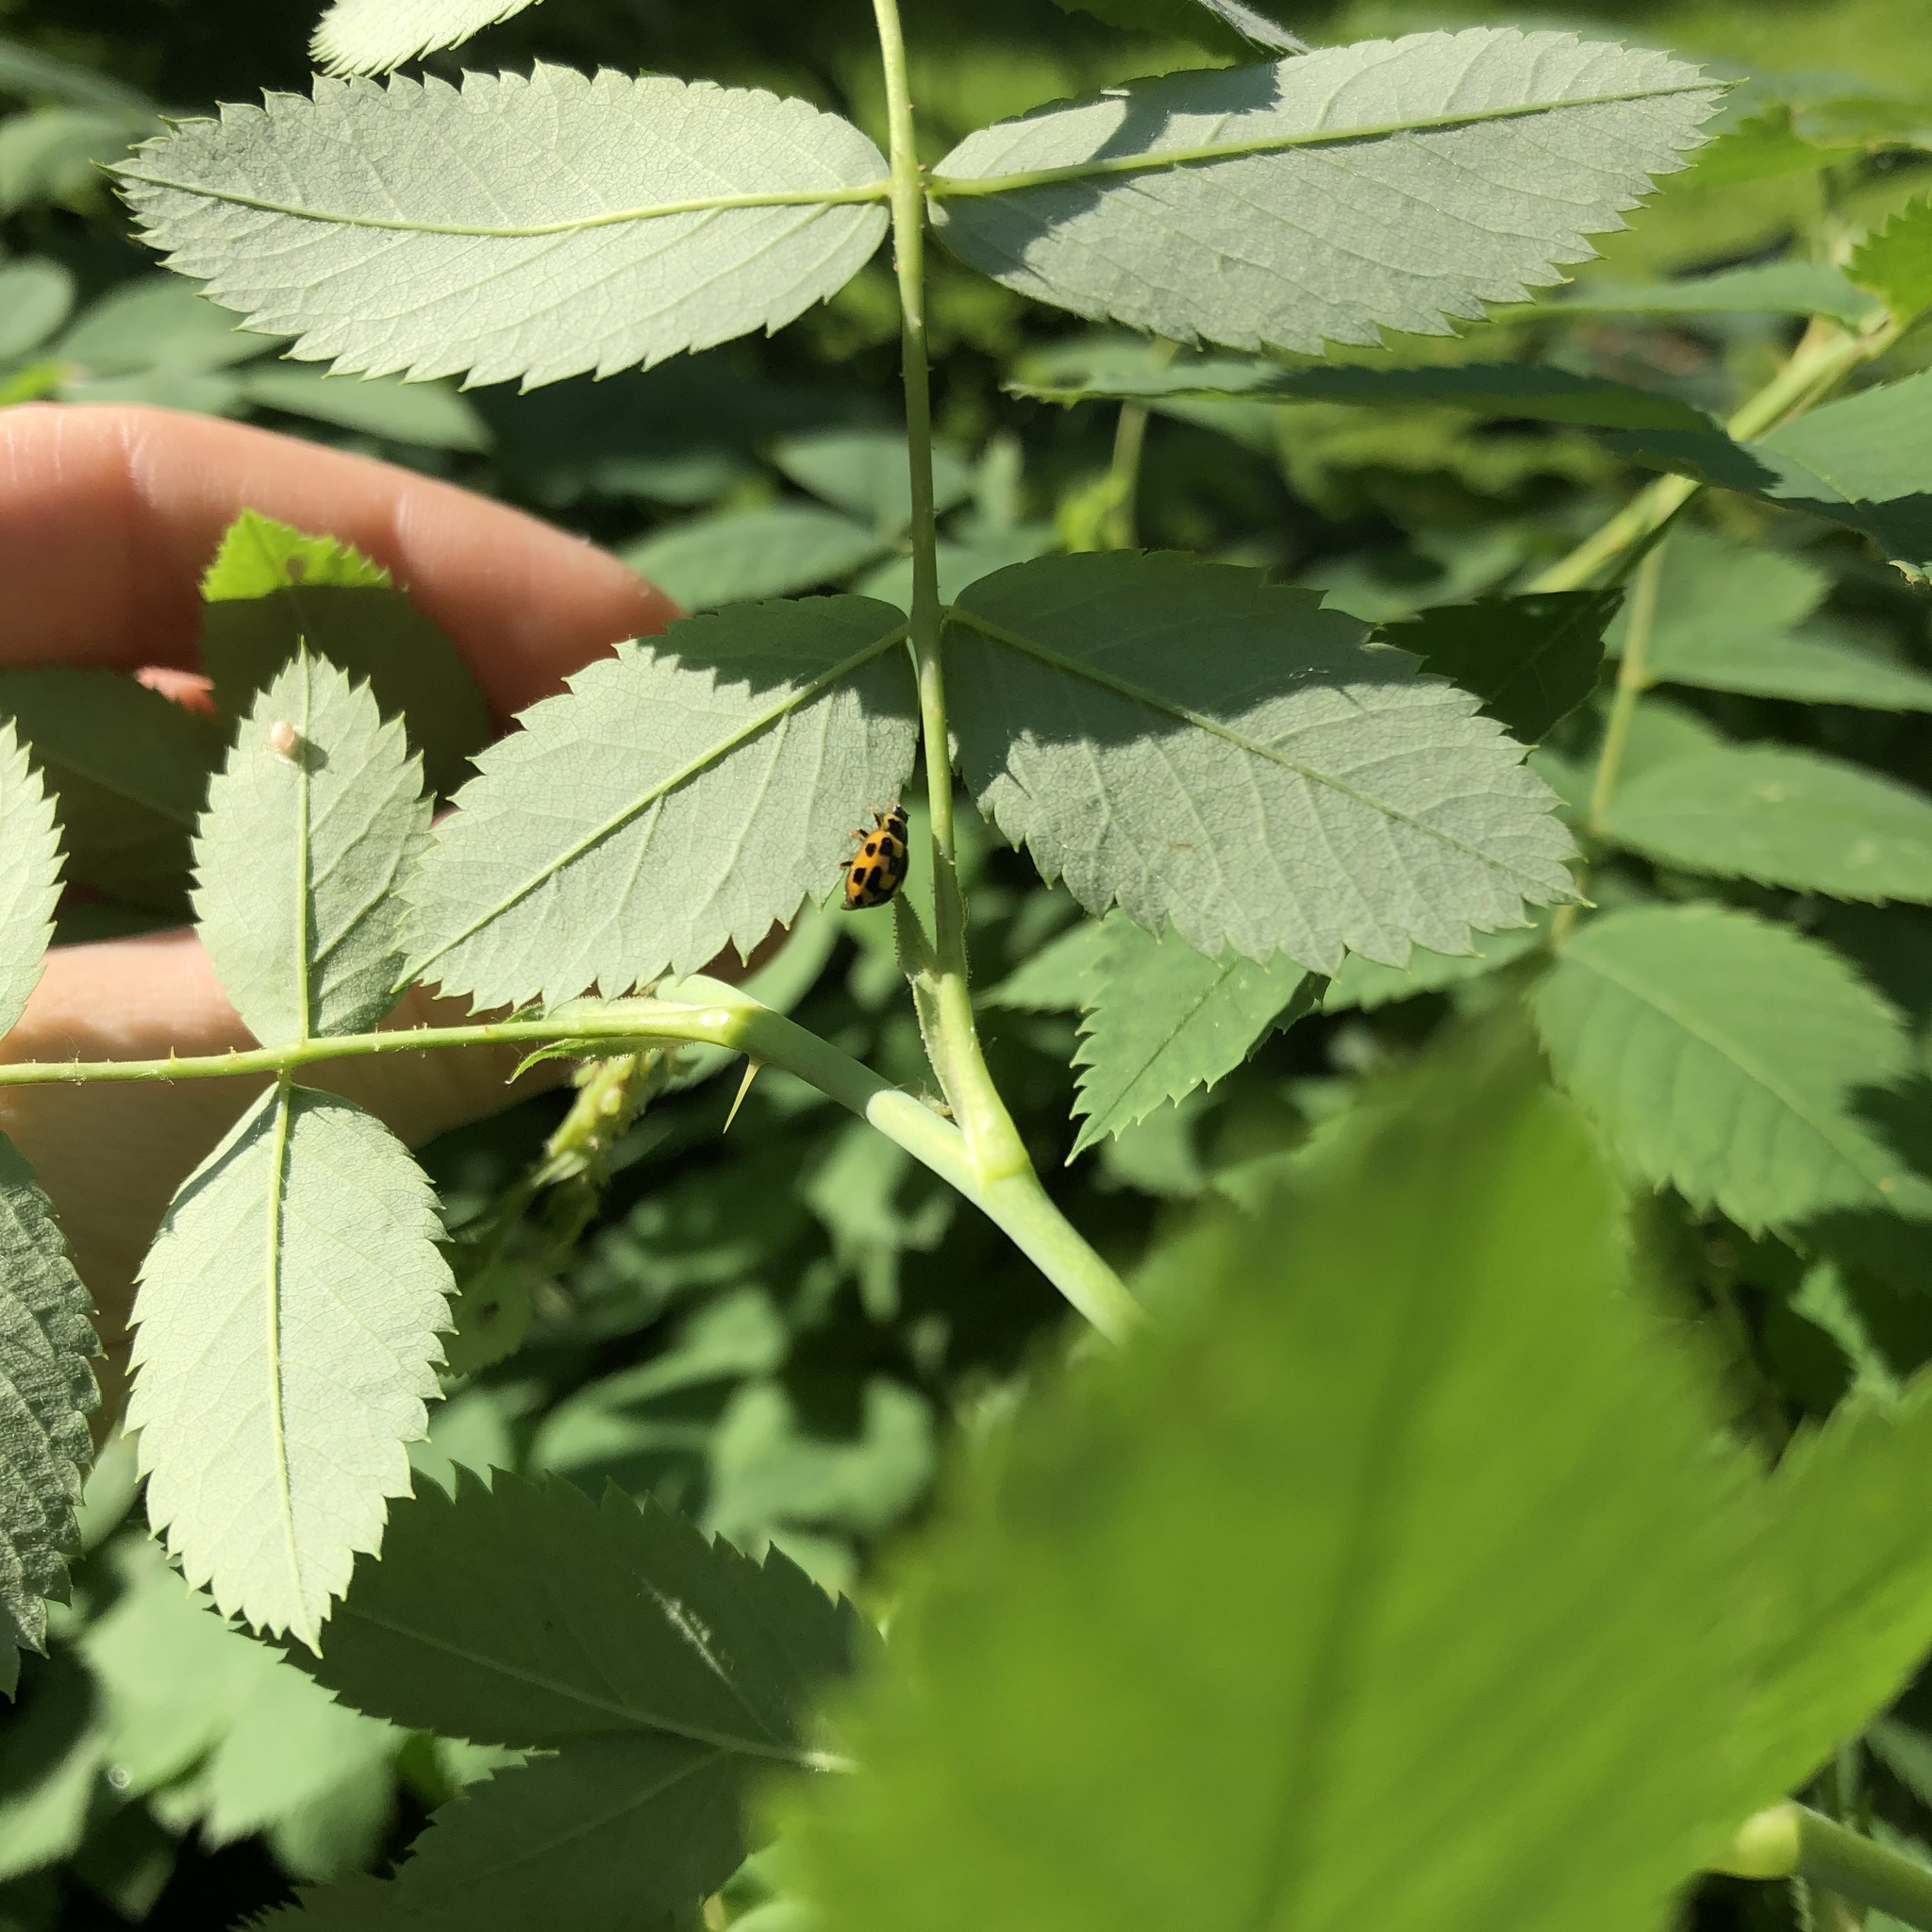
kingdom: Animalia
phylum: Arthropoda
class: Insecta
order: Coleoptera
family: Coccinellidae
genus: Propylaea
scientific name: Propylaea quatuordecimpunctata
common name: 14-spotted ladybird beetle
